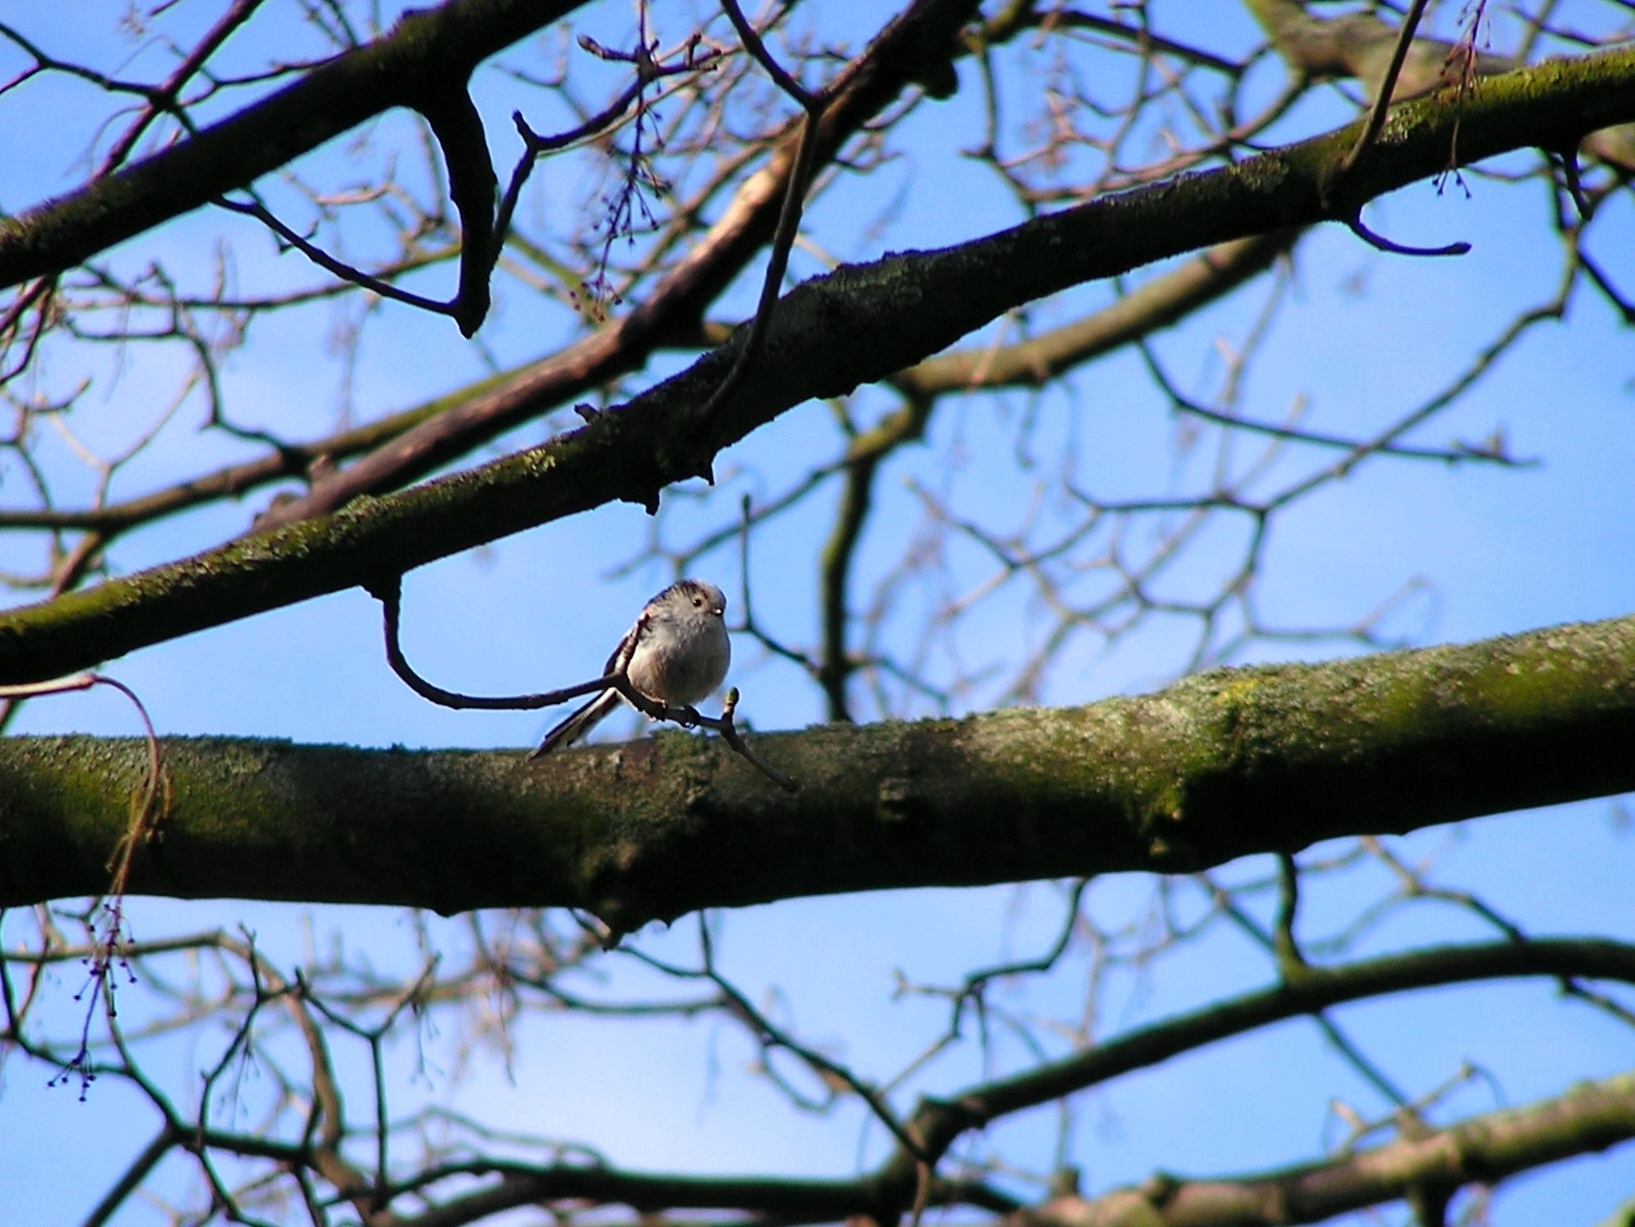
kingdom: Animalia
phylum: Chordata
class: Aves
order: Passeriformes
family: Aegithalidae
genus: Aegithalos
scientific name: Aegithalos caudatus
